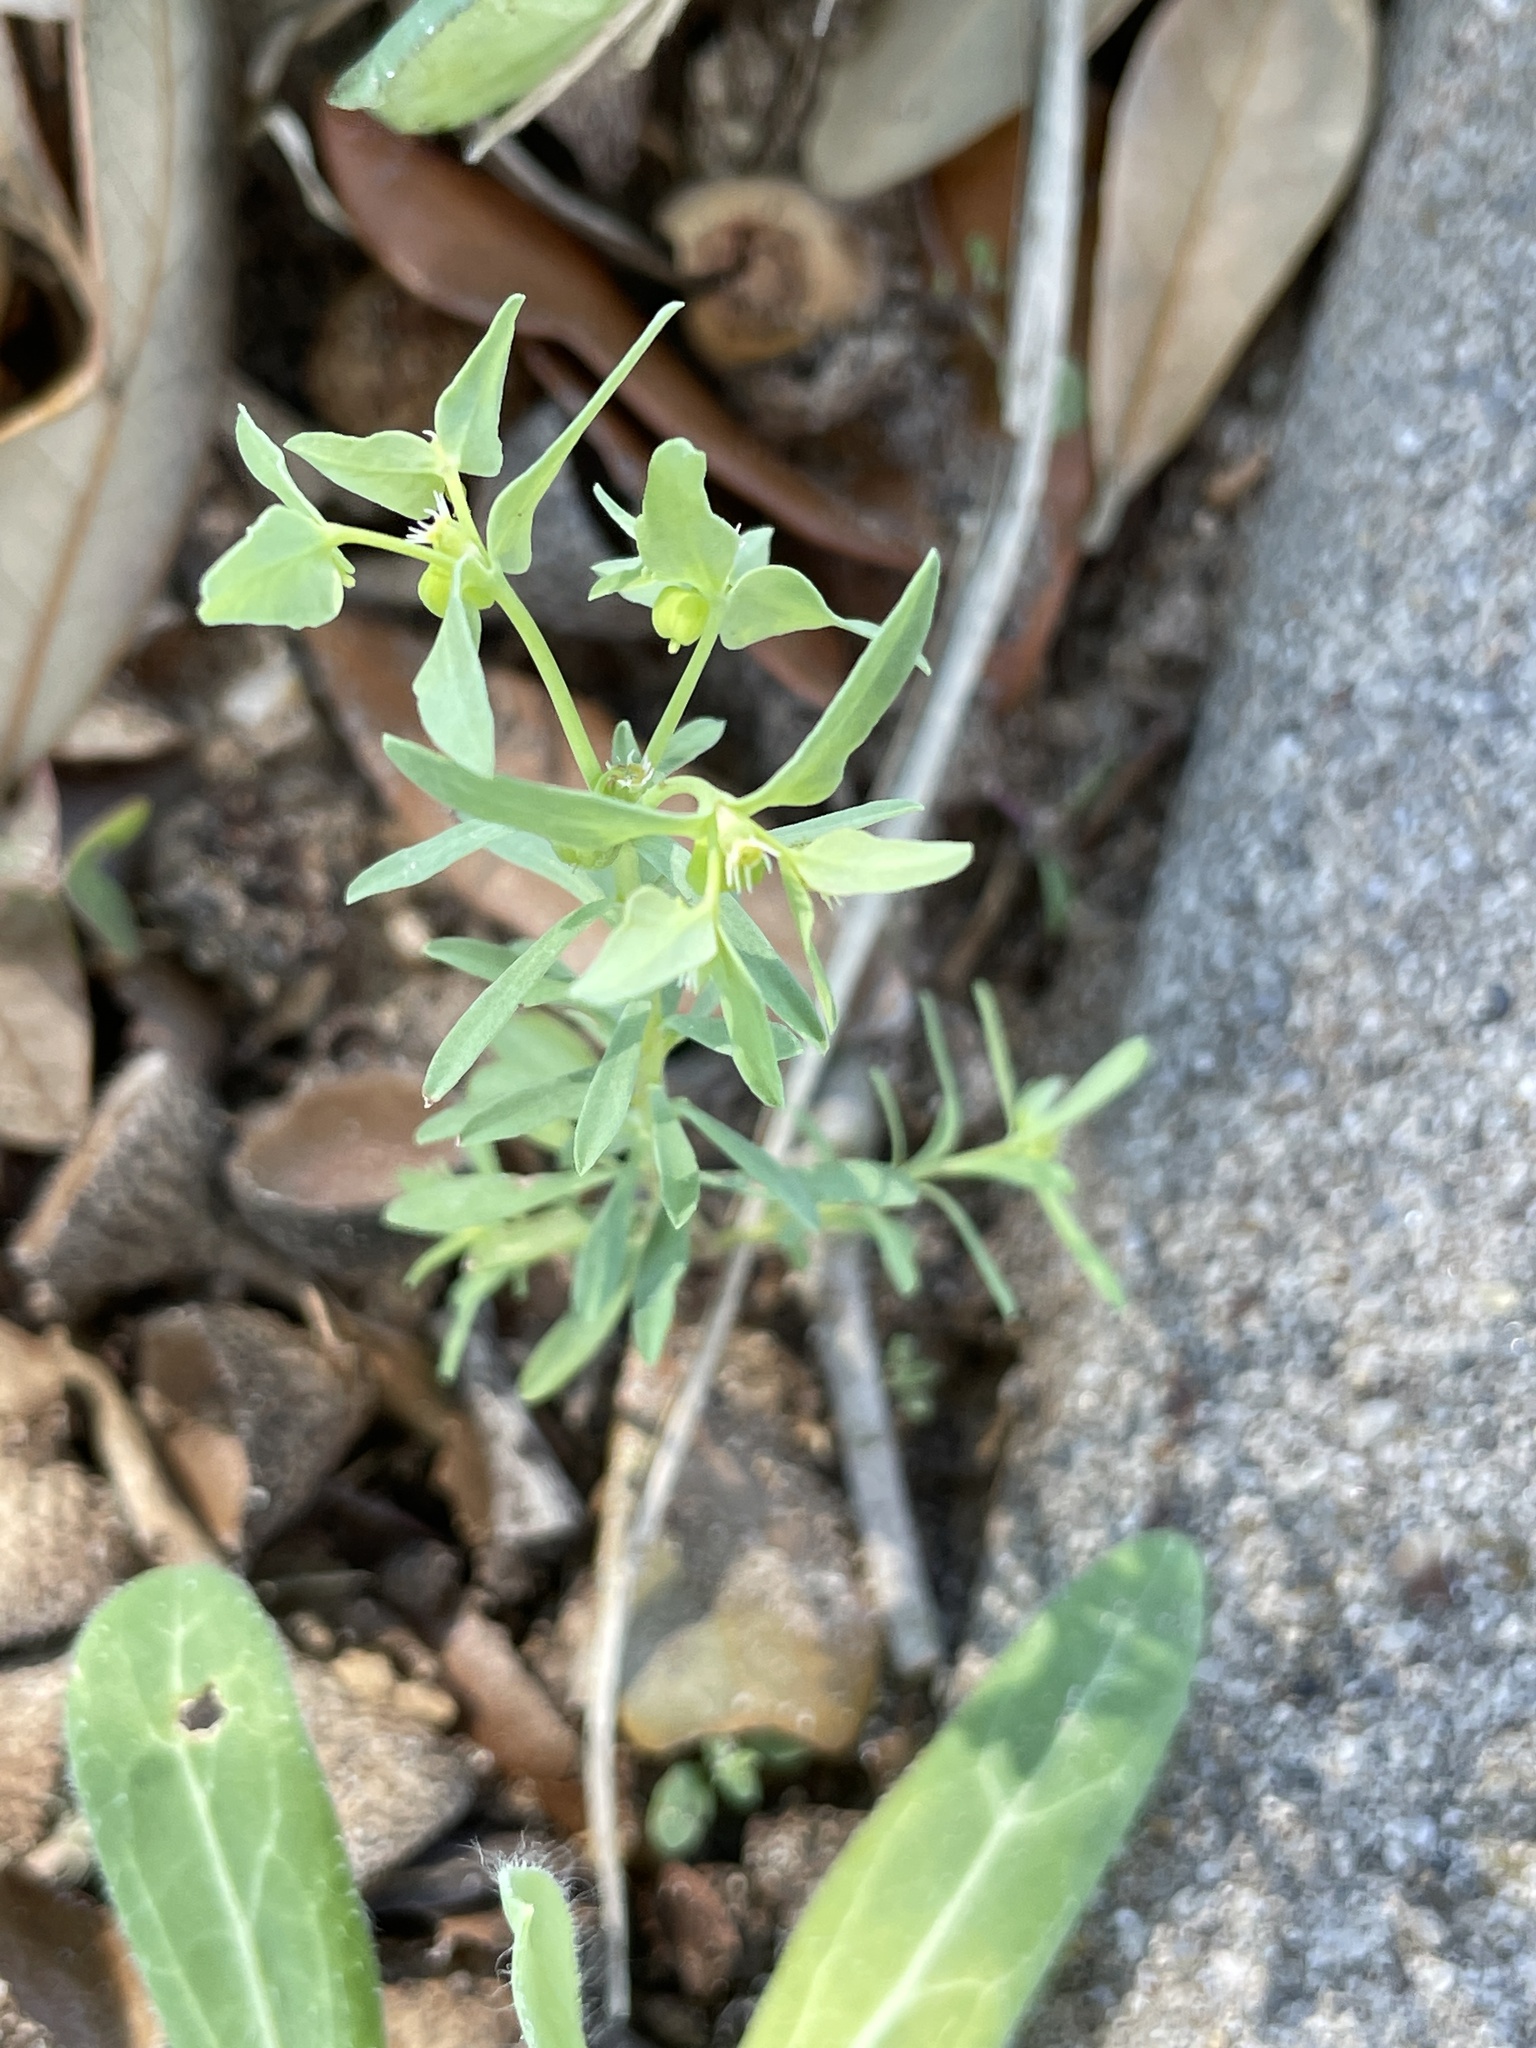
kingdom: Plantae
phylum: Tracheophyta
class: Magnoliopsida
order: Malpighiales
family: Euphorbiaceae
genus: Euphorbia
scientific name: Euphorbia peplidion
